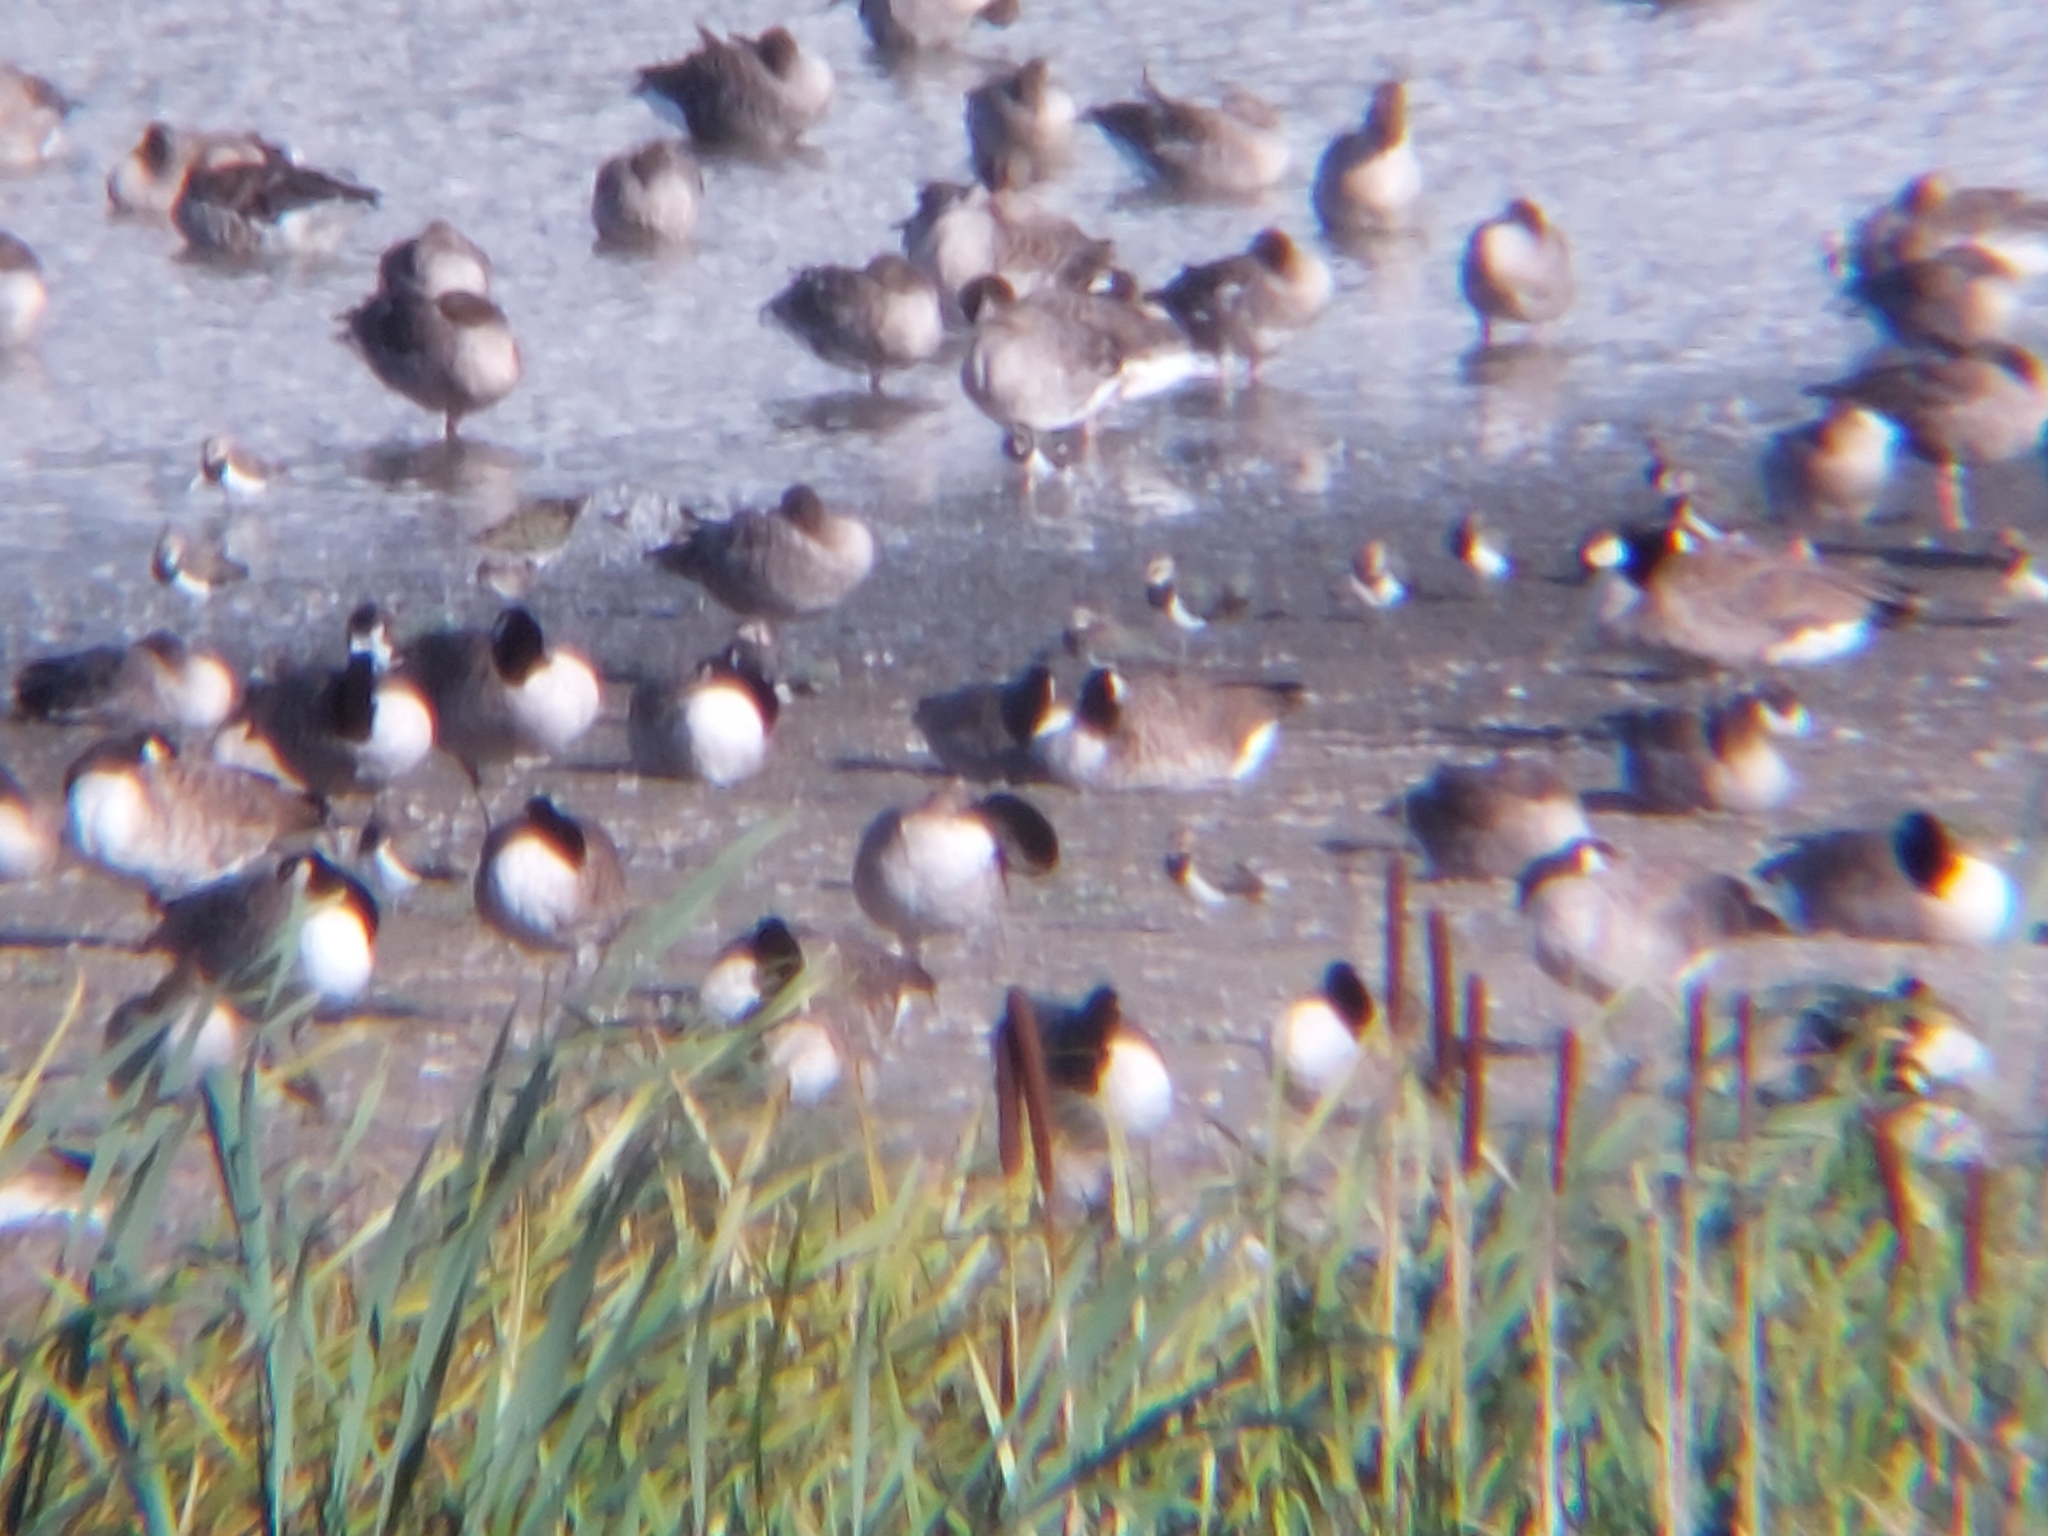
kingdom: Animalia
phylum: Chordata
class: Aves
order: Anseriformes
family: Anatidae
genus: Anser
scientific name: Anser anser
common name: Greylag goose
